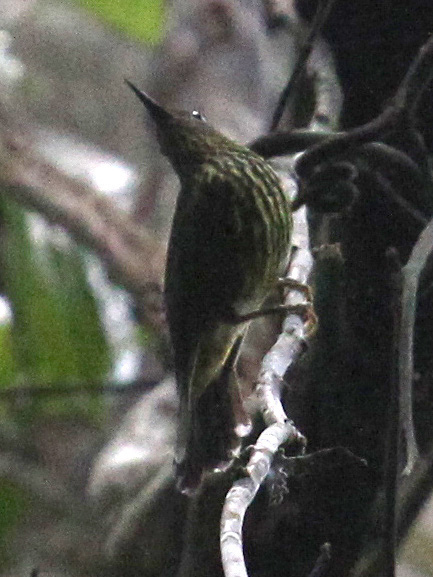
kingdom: Animalia
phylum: Chordata
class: Aves
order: Passeriformes
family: Nectariniidae
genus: Hypogramma
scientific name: Hypogramma hypogrammicum
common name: Purple-naped sunbird
